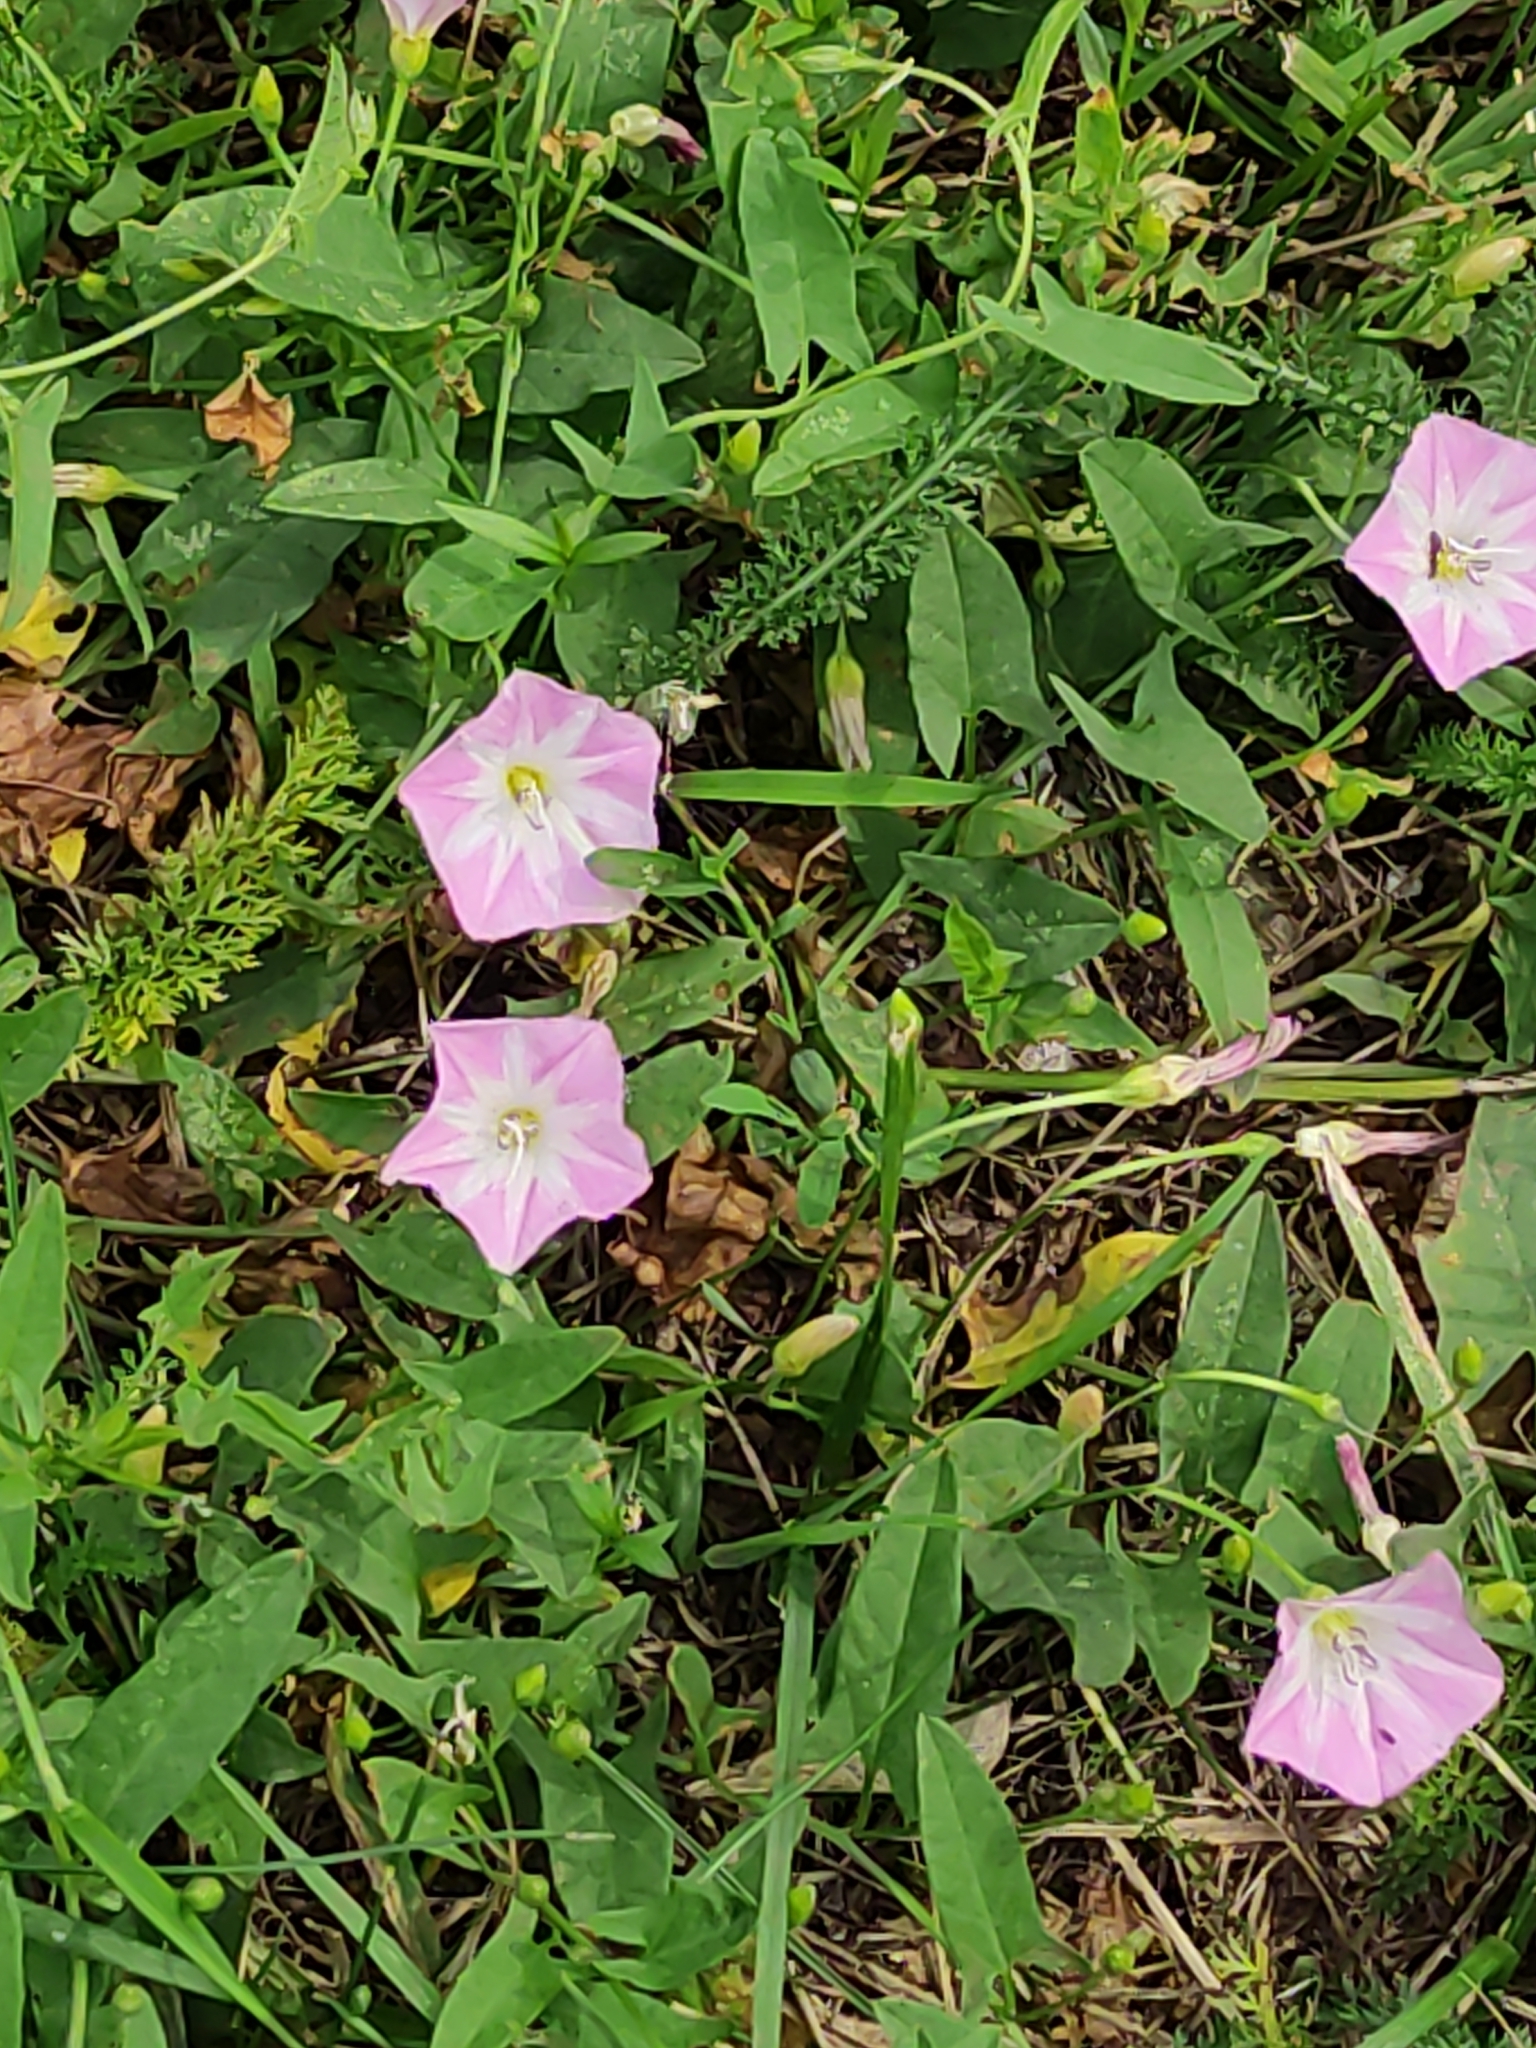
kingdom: Plantae
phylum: Tracheophyta
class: Magnoliopsida
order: Solanales
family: Convolvulaceae
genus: Convolvulus
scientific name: Convolvulus arvensis
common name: Field bindweed
